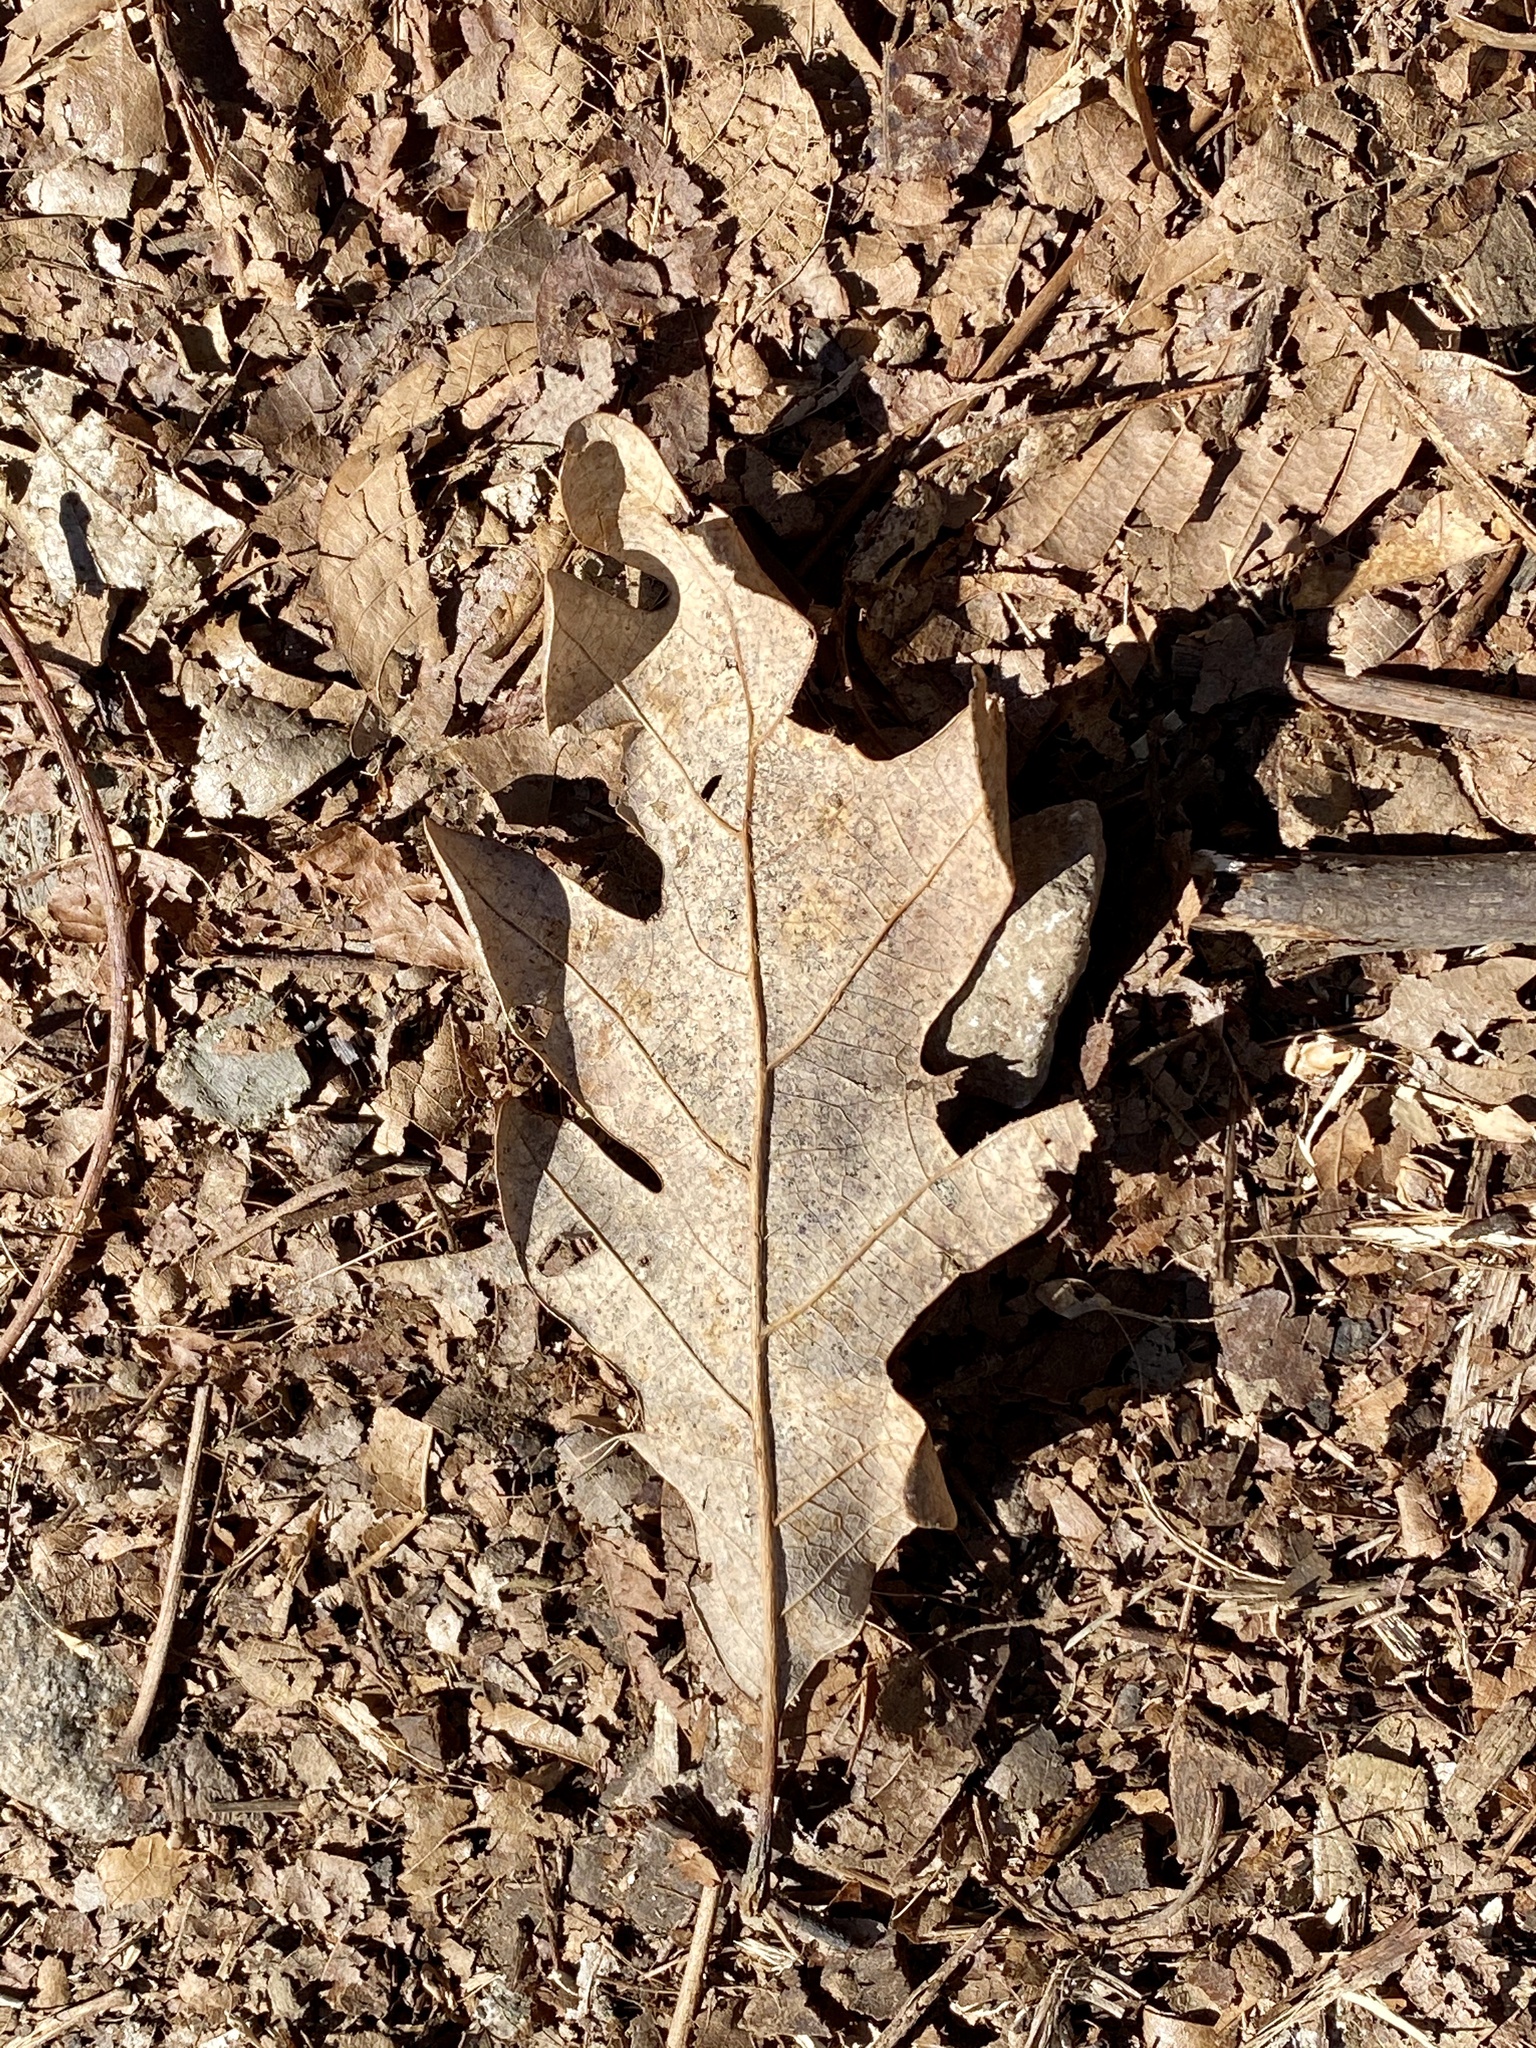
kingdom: Plantae
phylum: Tracheophyta
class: Magnoliopsida
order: Fagales
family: Fagaceae
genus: Quercus
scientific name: Quercus alba
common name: White oak
